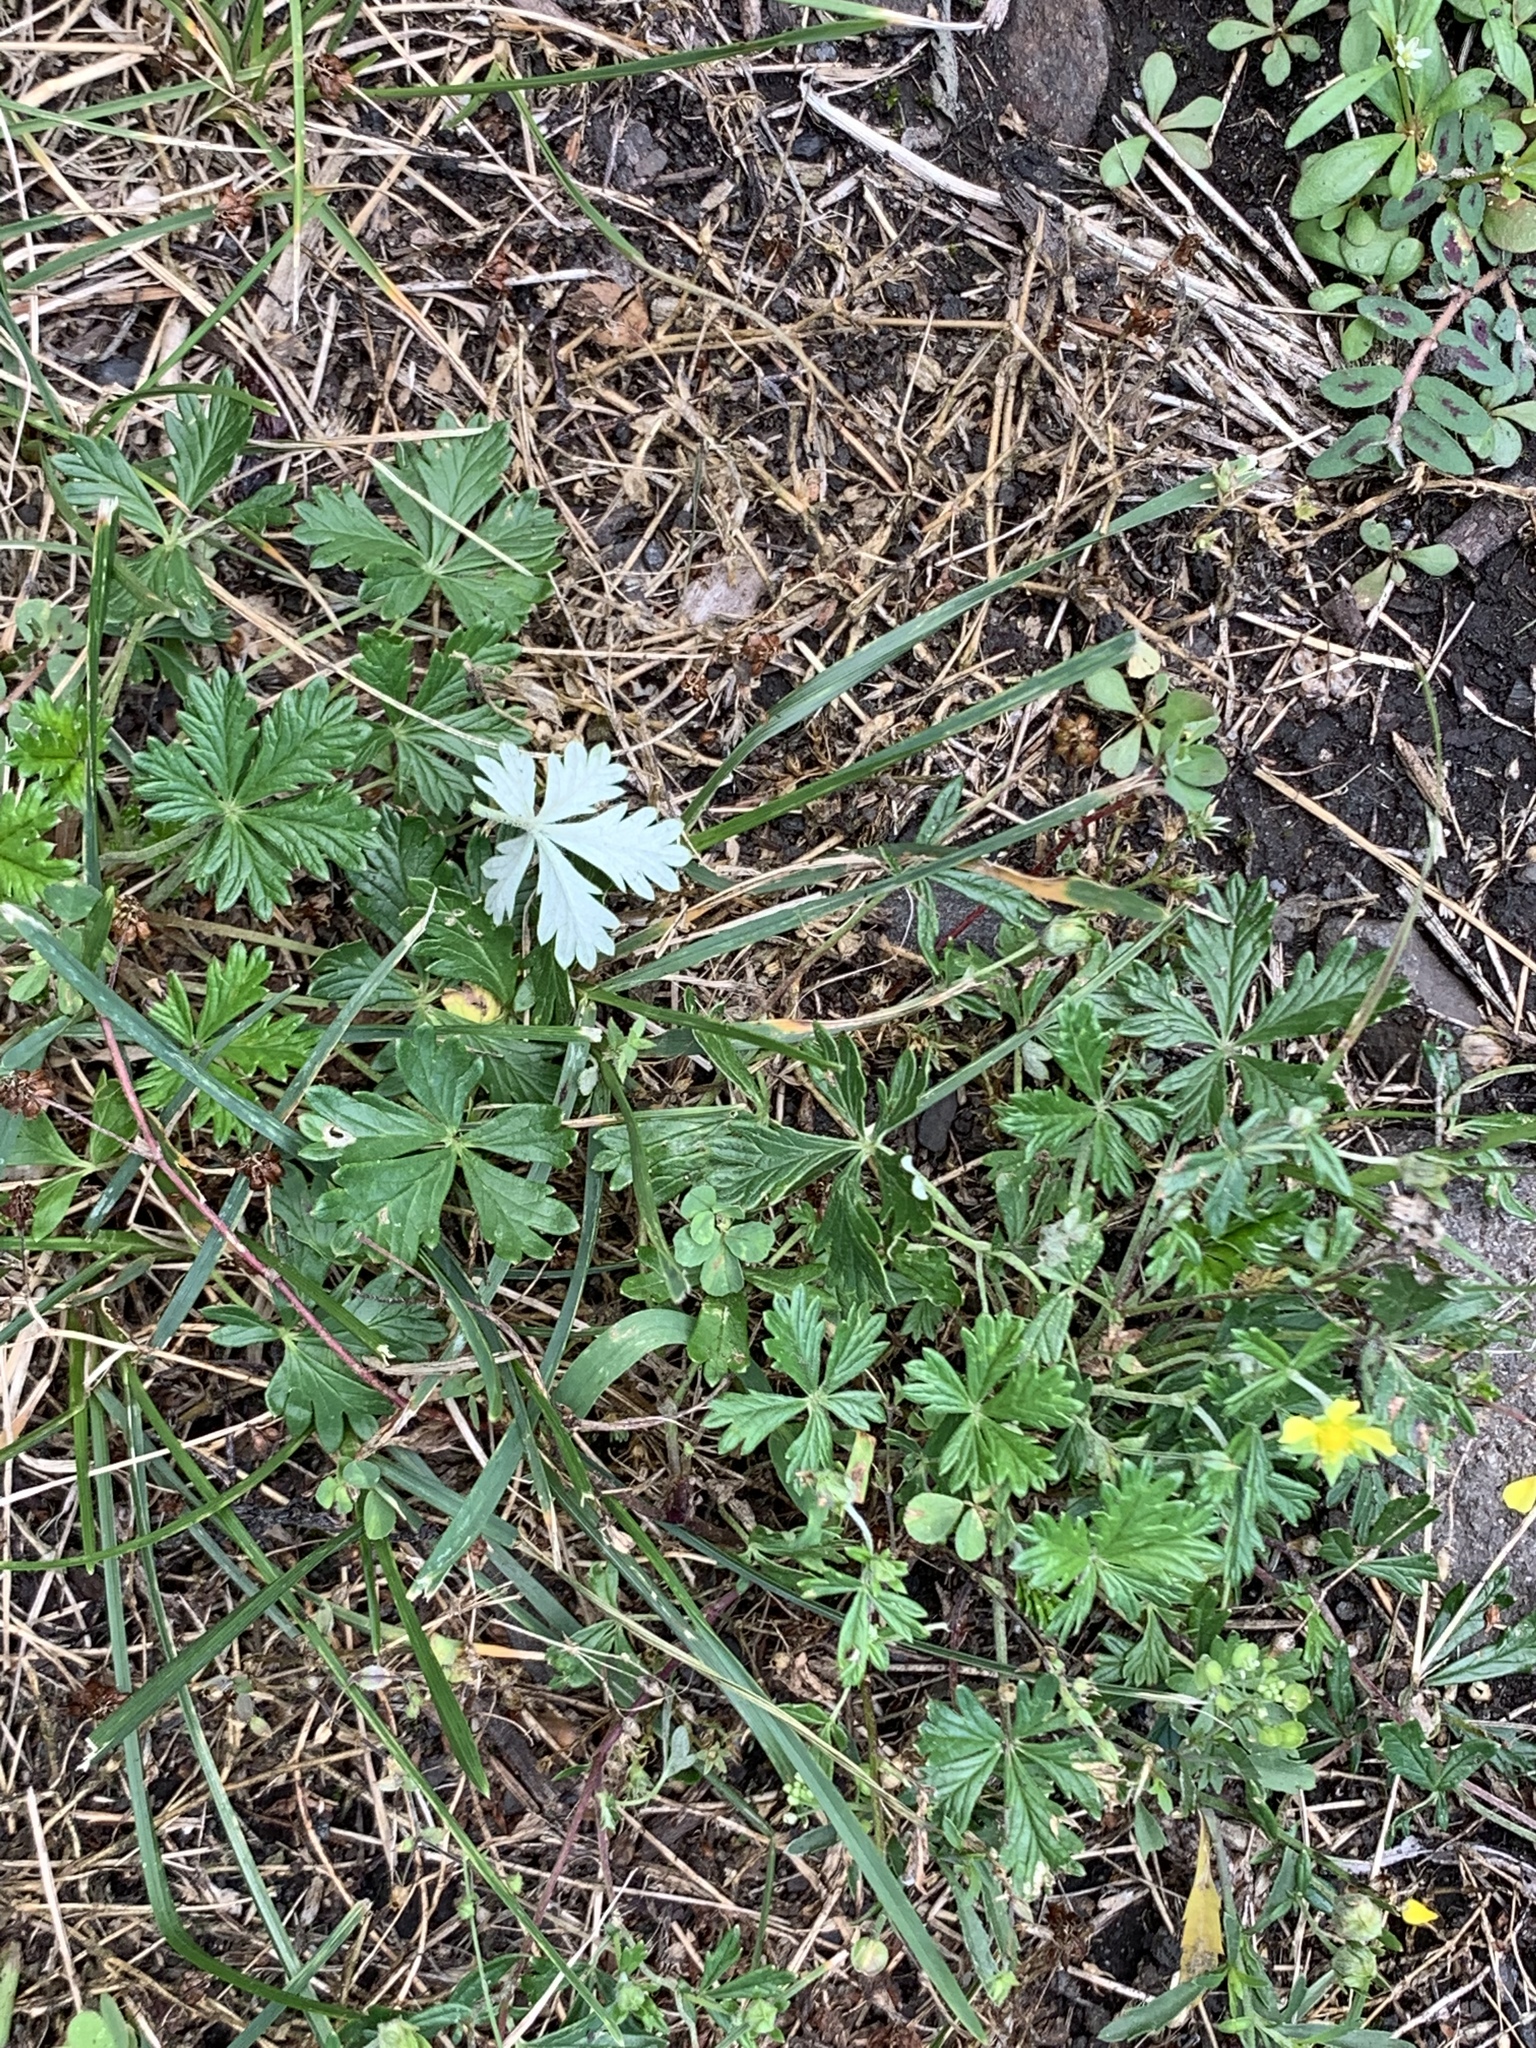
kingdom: Plantae
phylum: Tracheophyta
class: Magnoliopsida
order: Rosales
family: Rosaceae
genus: Potentilla
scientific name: Potentilla argentea
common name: Hoary cinquefoil
